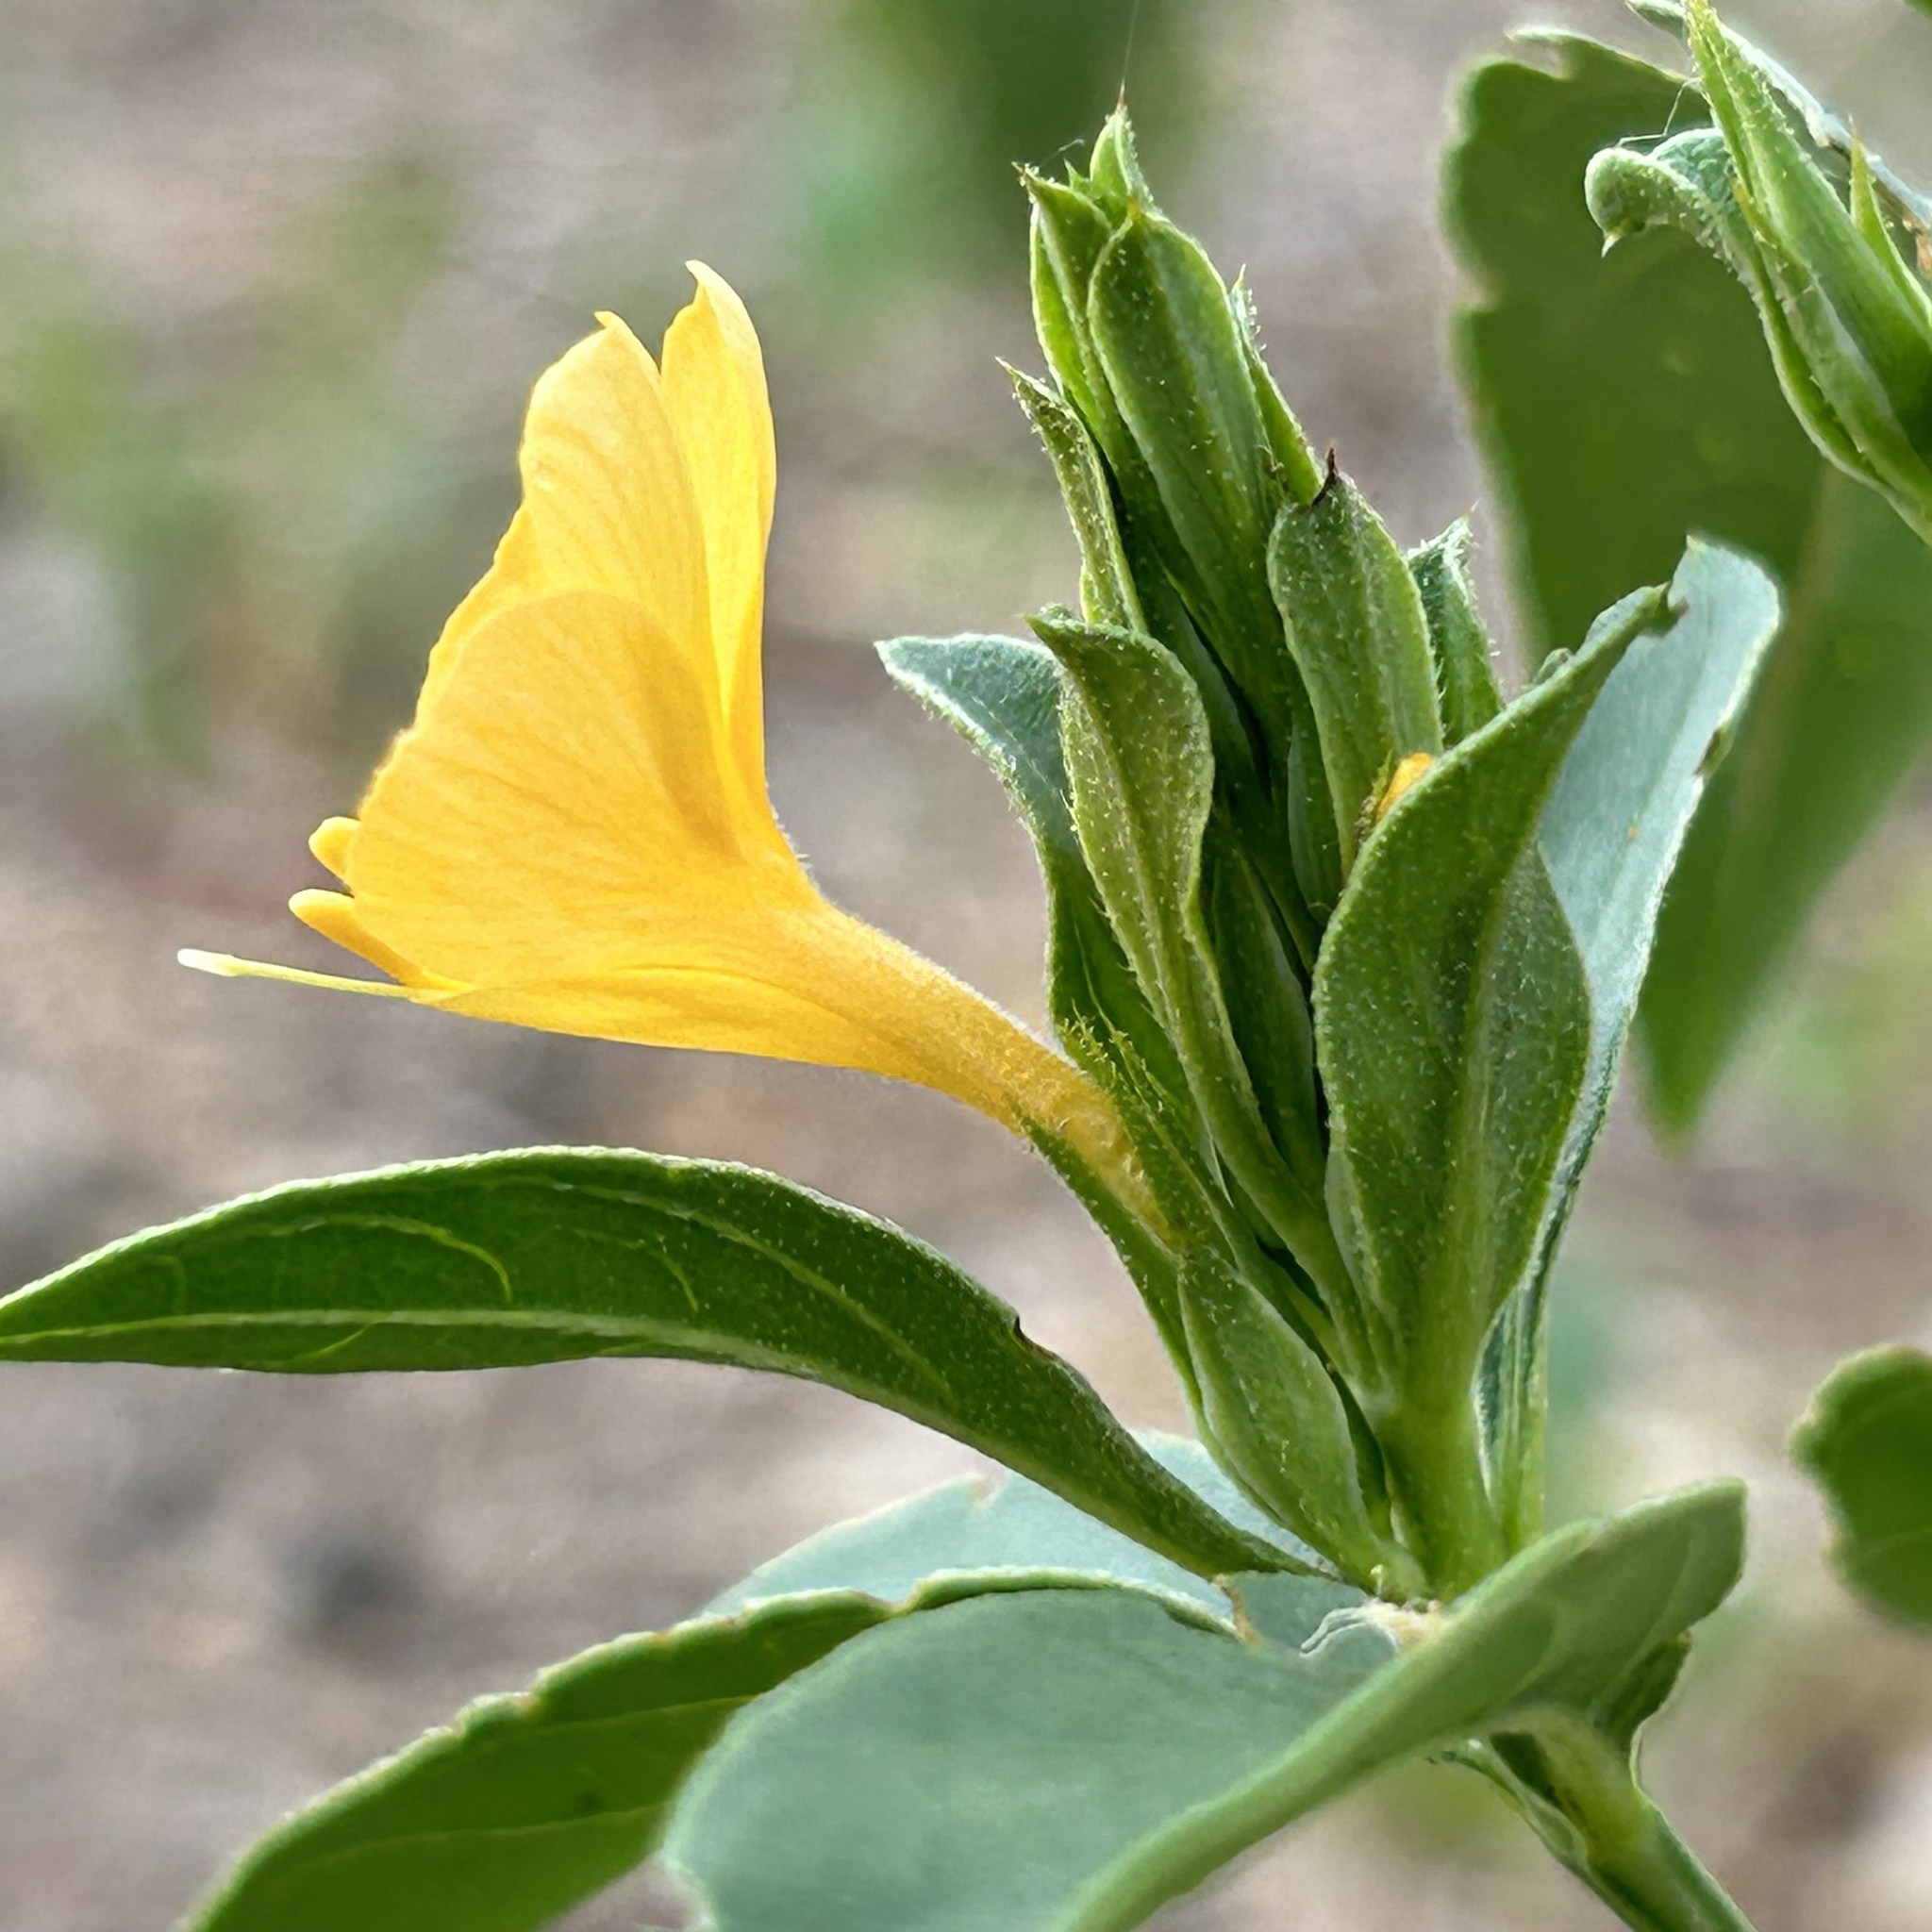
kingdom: Plantae
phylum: Tracheophyta
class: Magnoliopsida
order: Lamiales
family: Acanthaceae
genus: Barleria
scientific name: Barleria senensis
